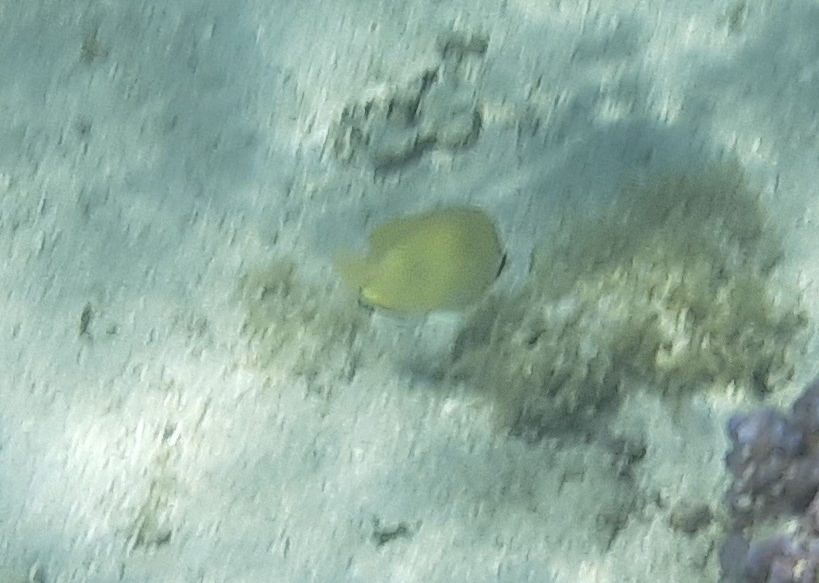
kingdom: Animalia
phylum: Chordata
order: Perciformes
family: Chaetodontidae
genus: Chaetodon
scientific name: Chaetodon citrinellus
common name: Speckled butterflyfish
